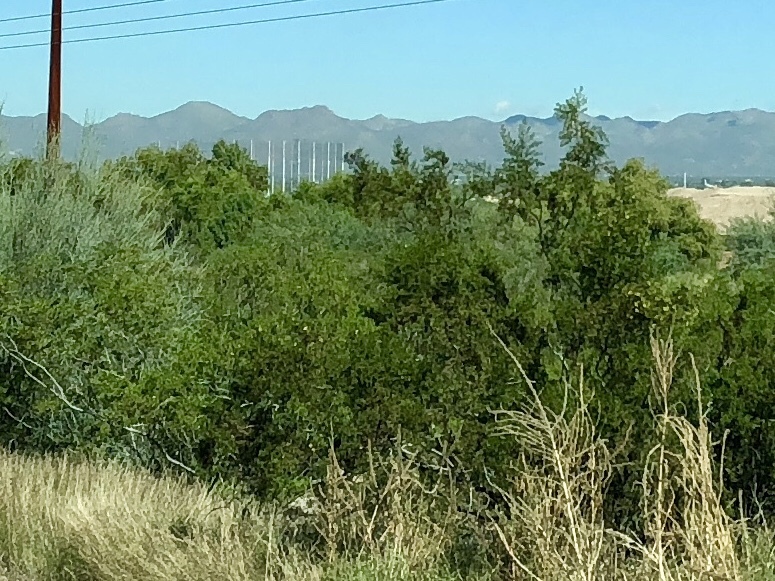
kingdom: Plantae
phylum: Tracheophyta
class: Magnoliopsida
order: Zygophyllales
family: Zygophyllaceae
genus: Larrea
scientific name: Larrea tridentata
